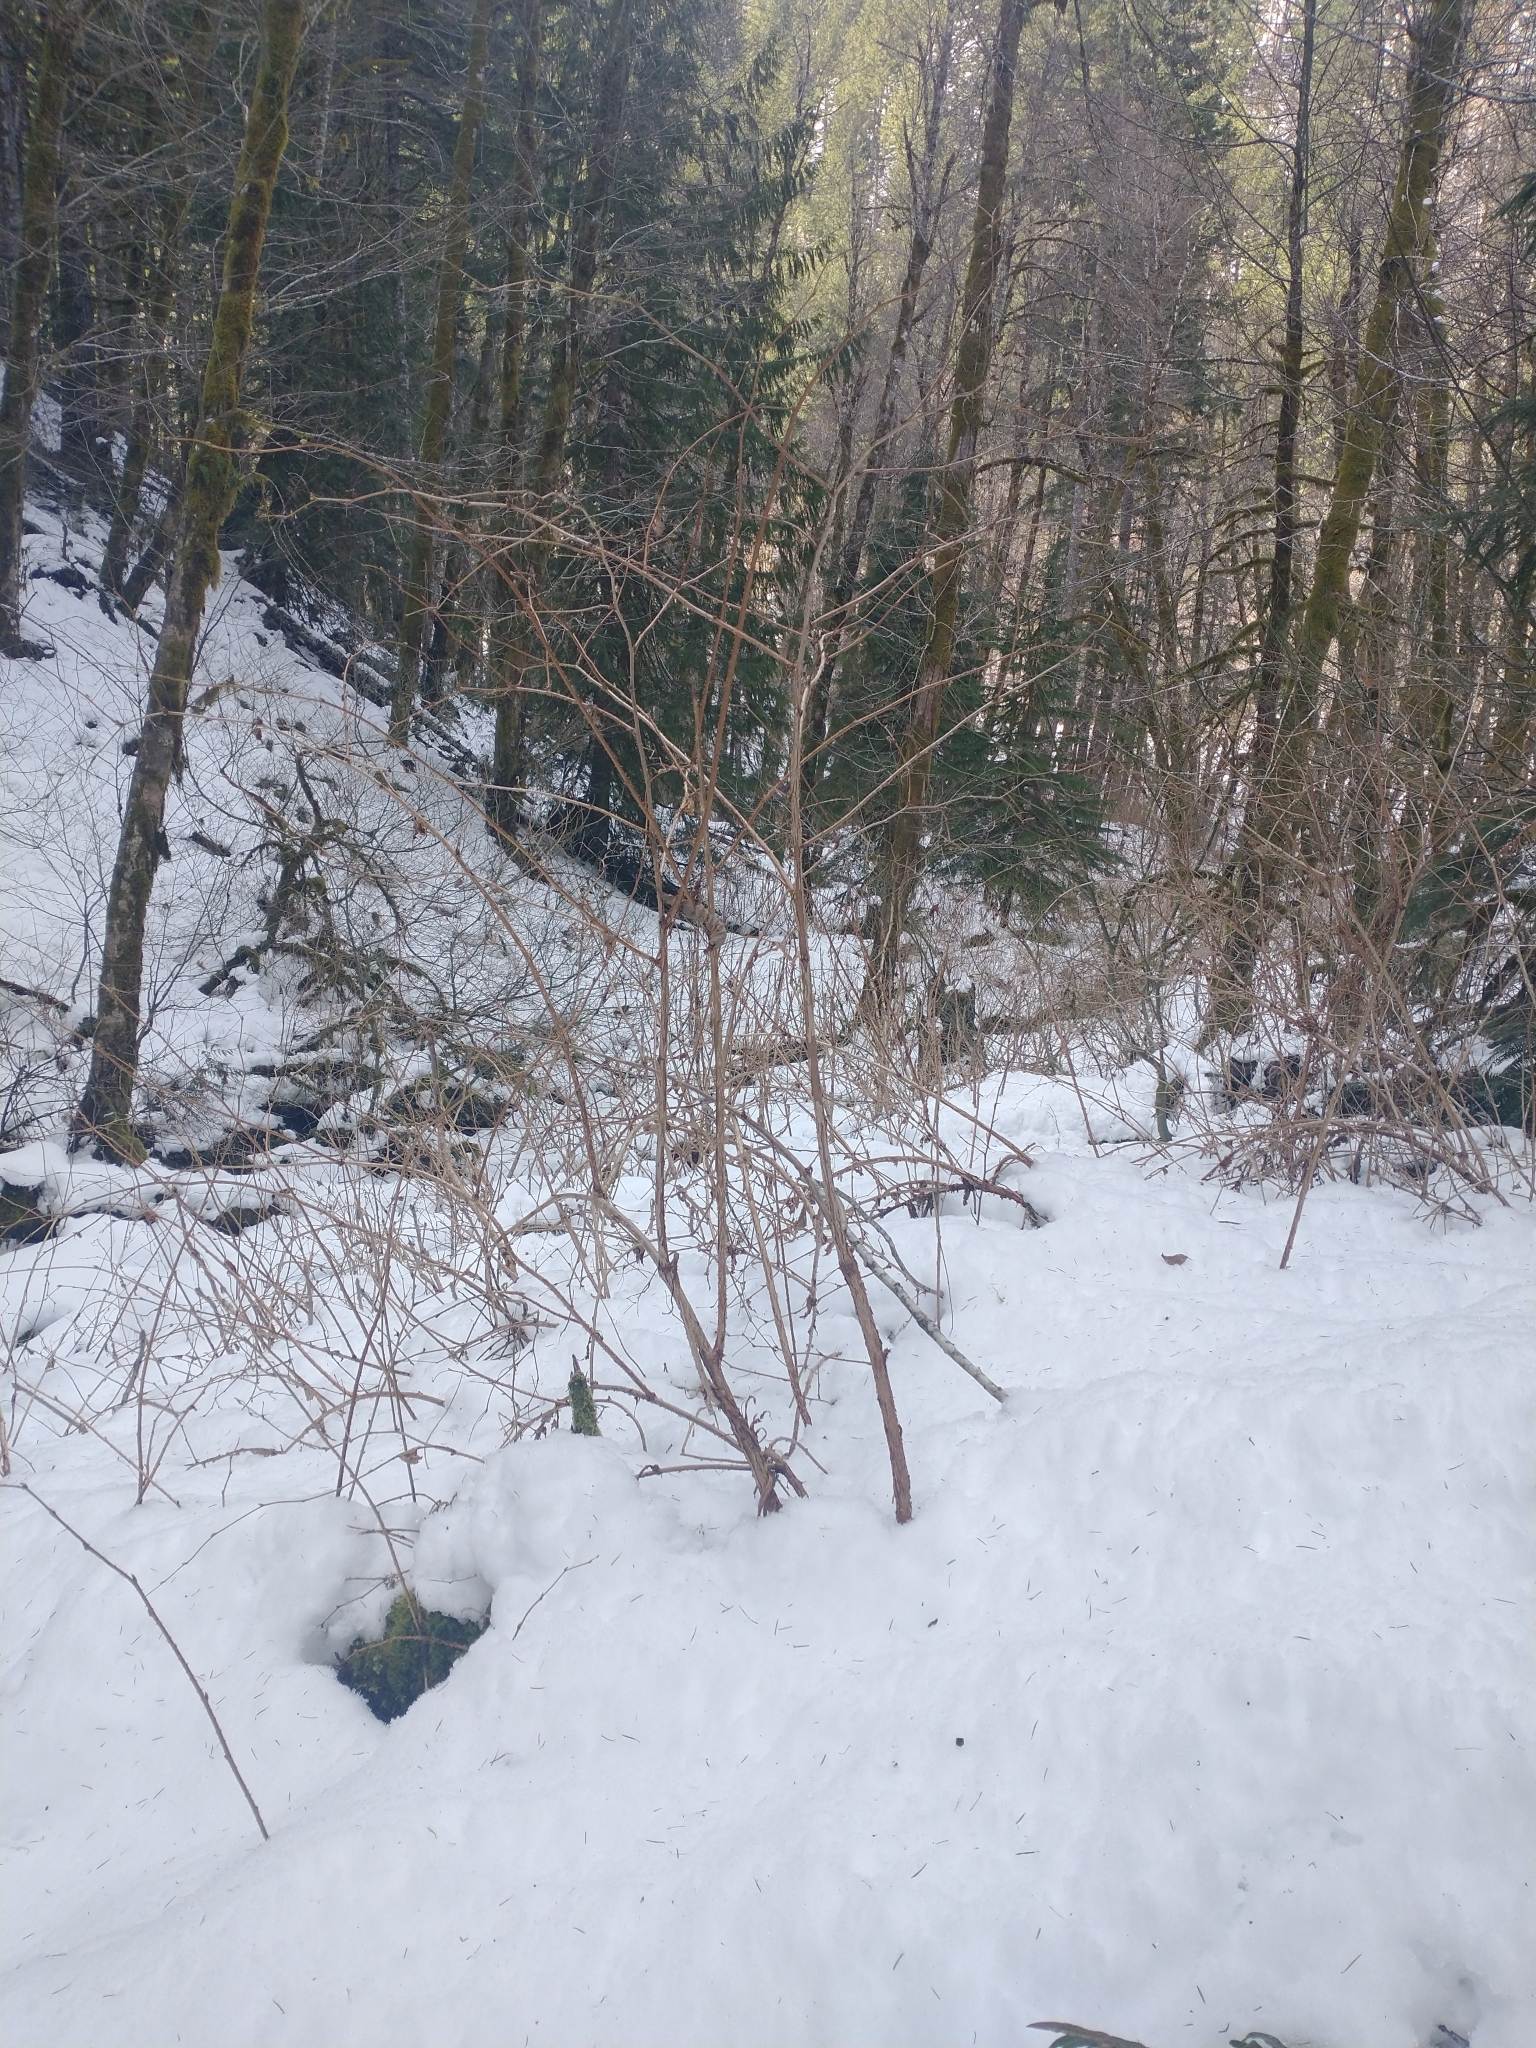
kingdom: Plantae
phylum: Tracheophyta
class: Magnoliopsida
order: Rosales
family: Rosaceae
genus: Rubus
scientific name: Rubus spectabilis
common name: Salmonberry
